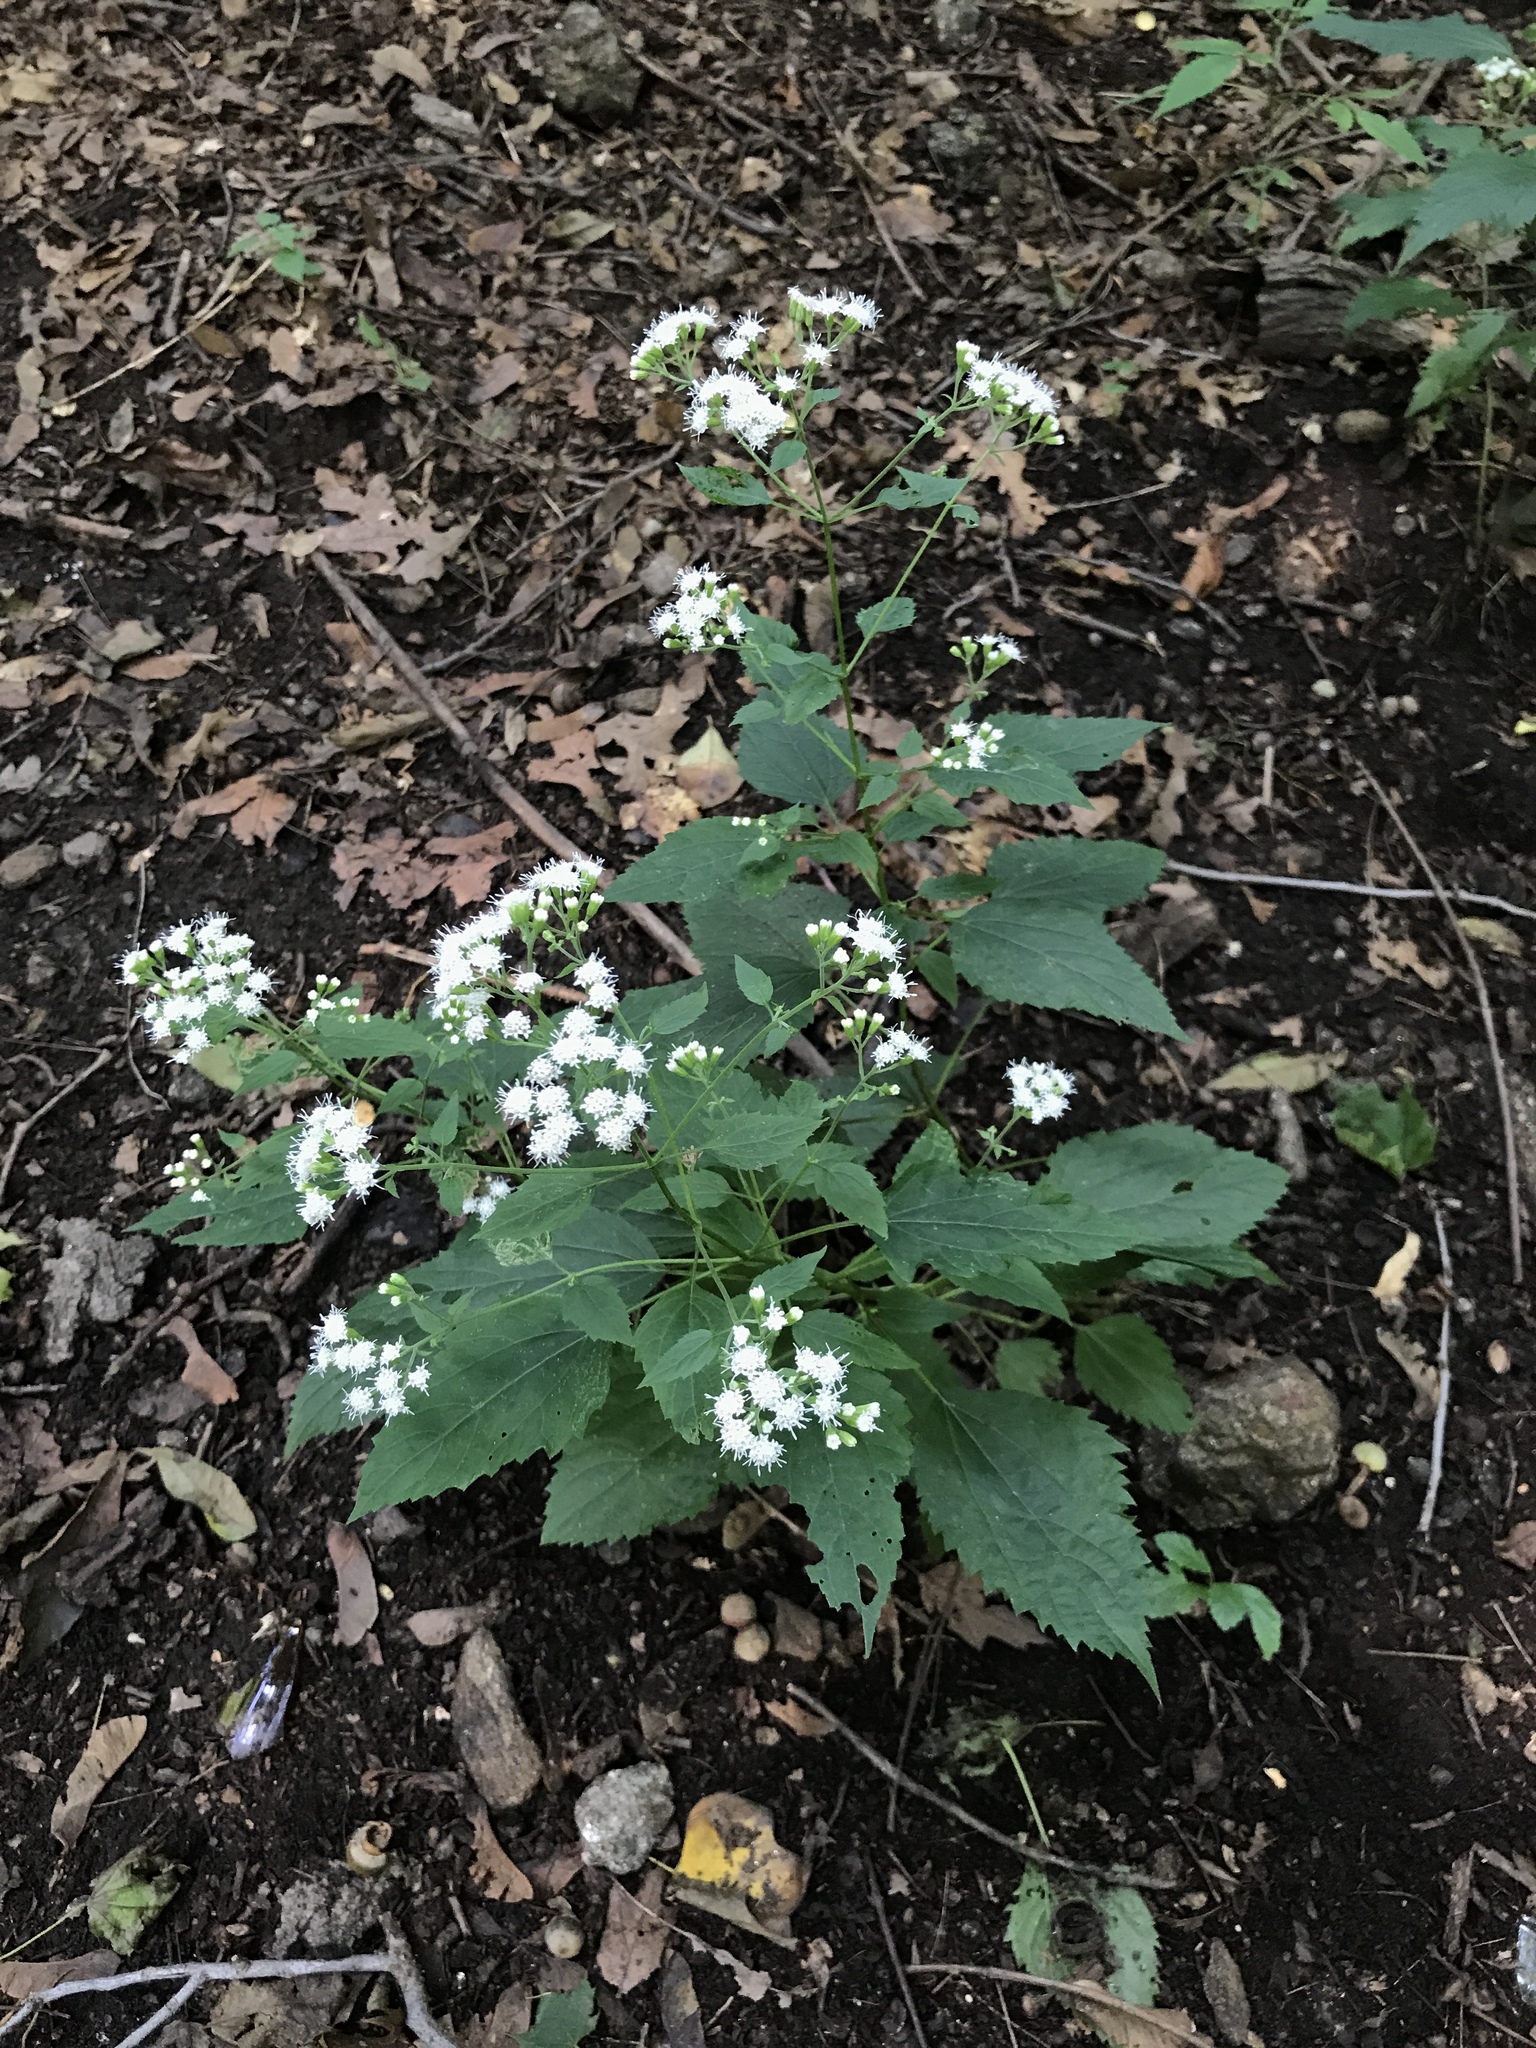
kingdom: Plantae
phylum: Tracheophyta
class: Magnoliopsida
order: Asterales
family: Asteraceae
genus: Ageratina
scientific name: Ageratina altissima
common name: White snakeroot
